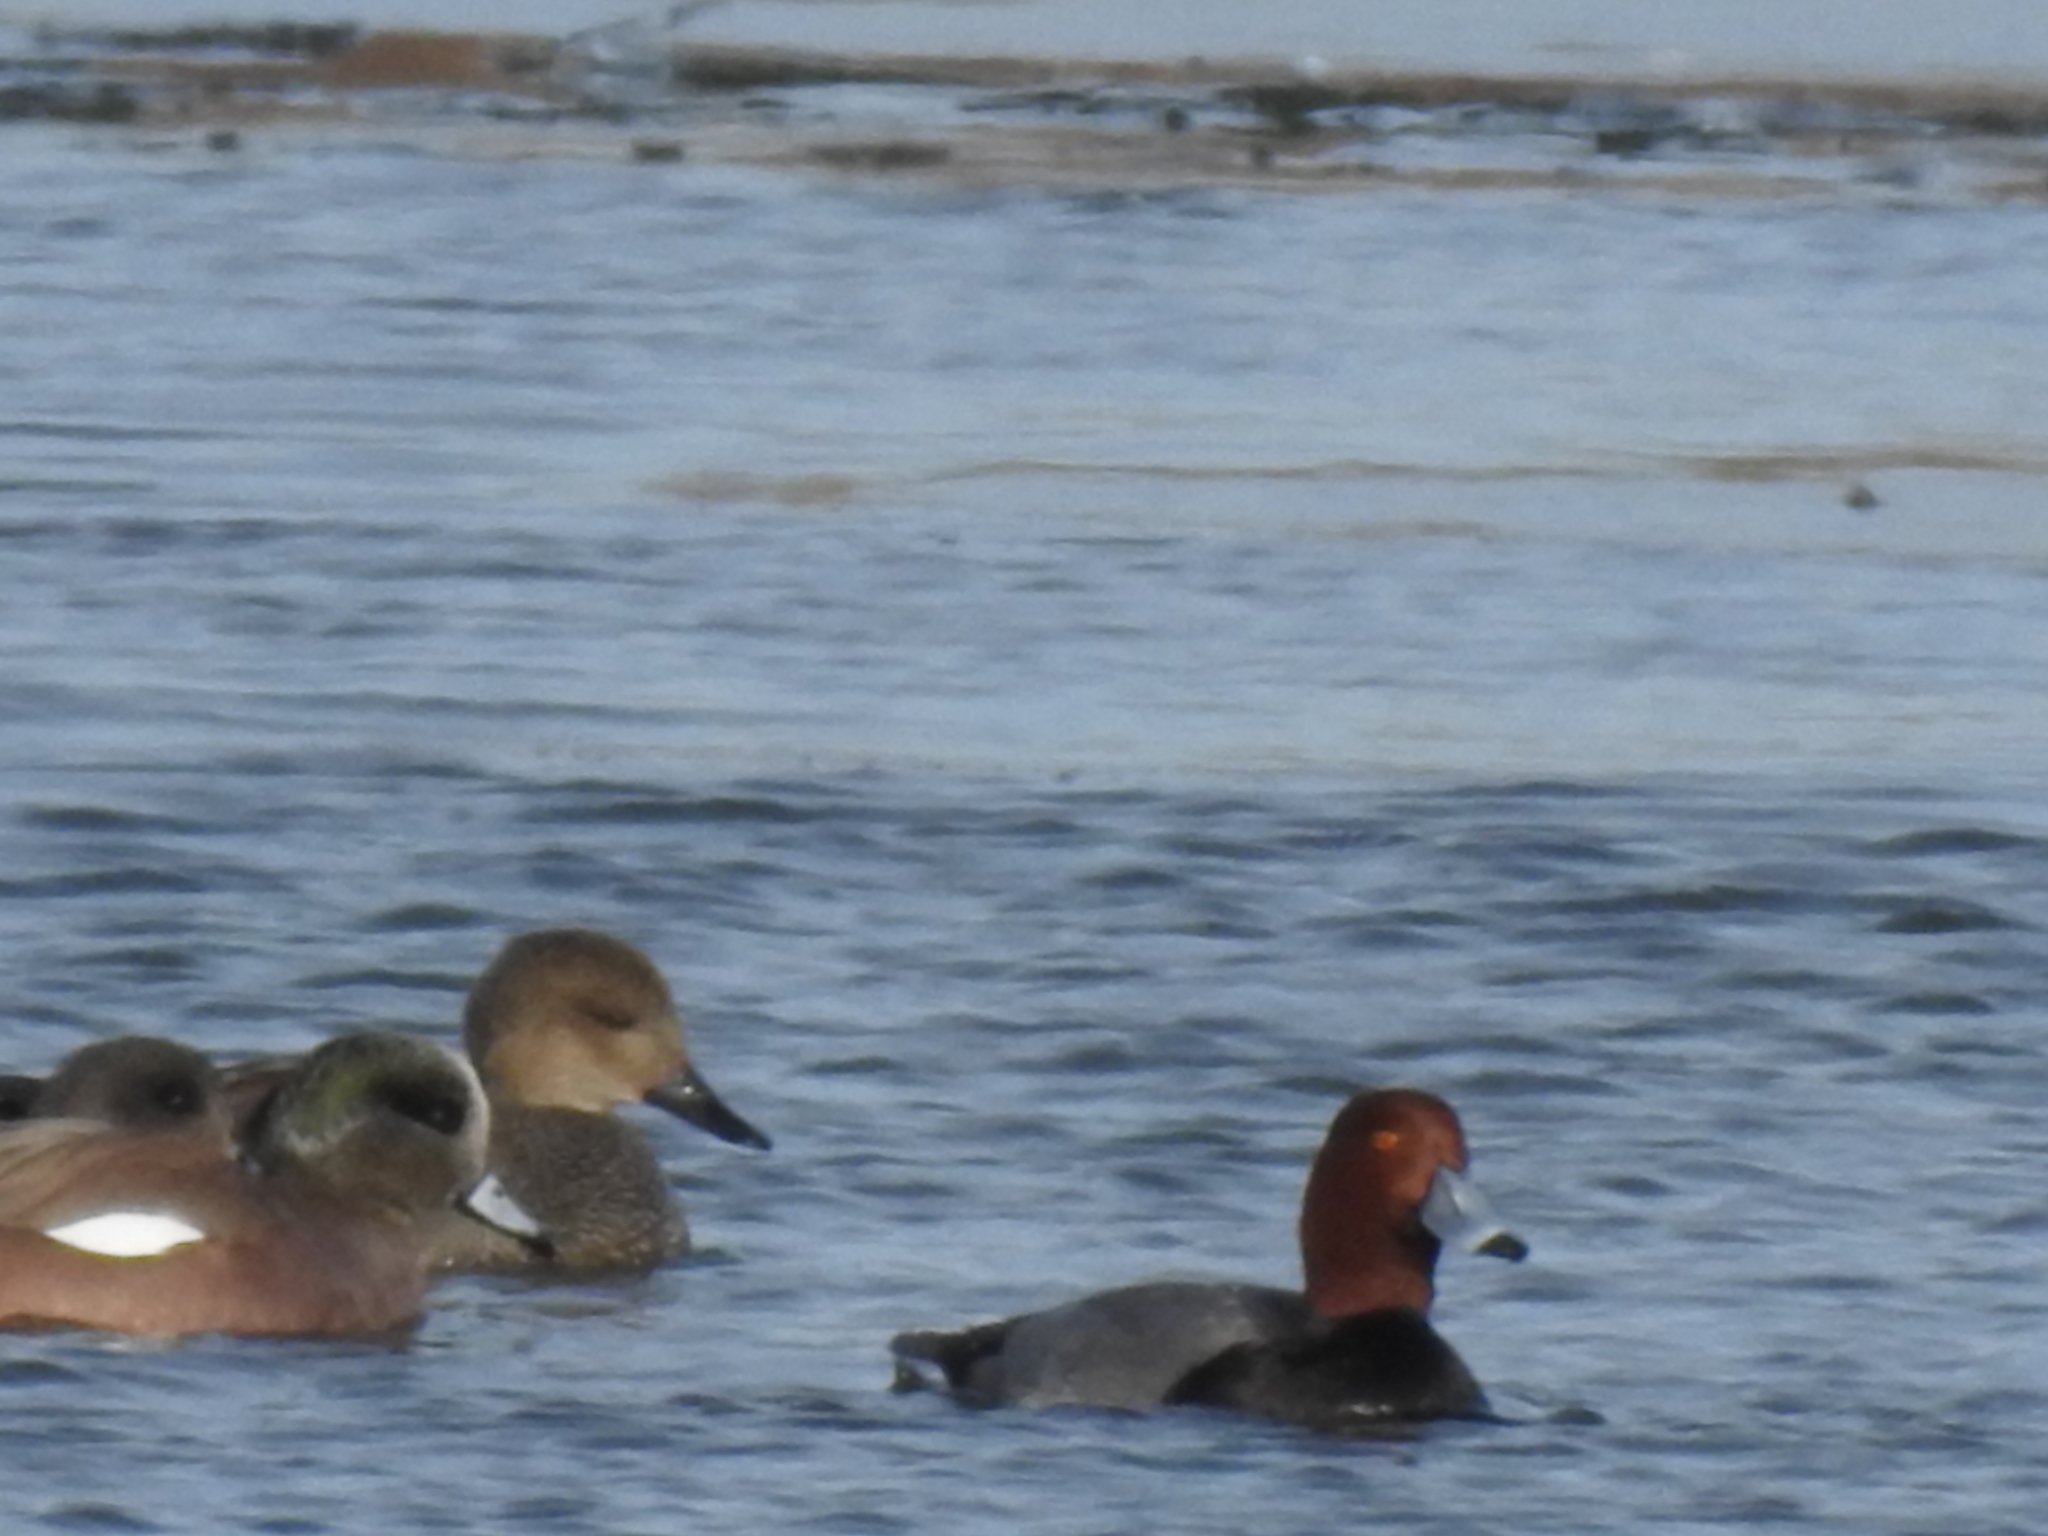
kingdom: Animalia
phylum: Chordata
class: Aves
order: Anseriformes
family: Anatidae
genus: Aythya
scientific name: Aythya americana
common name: Redhead
